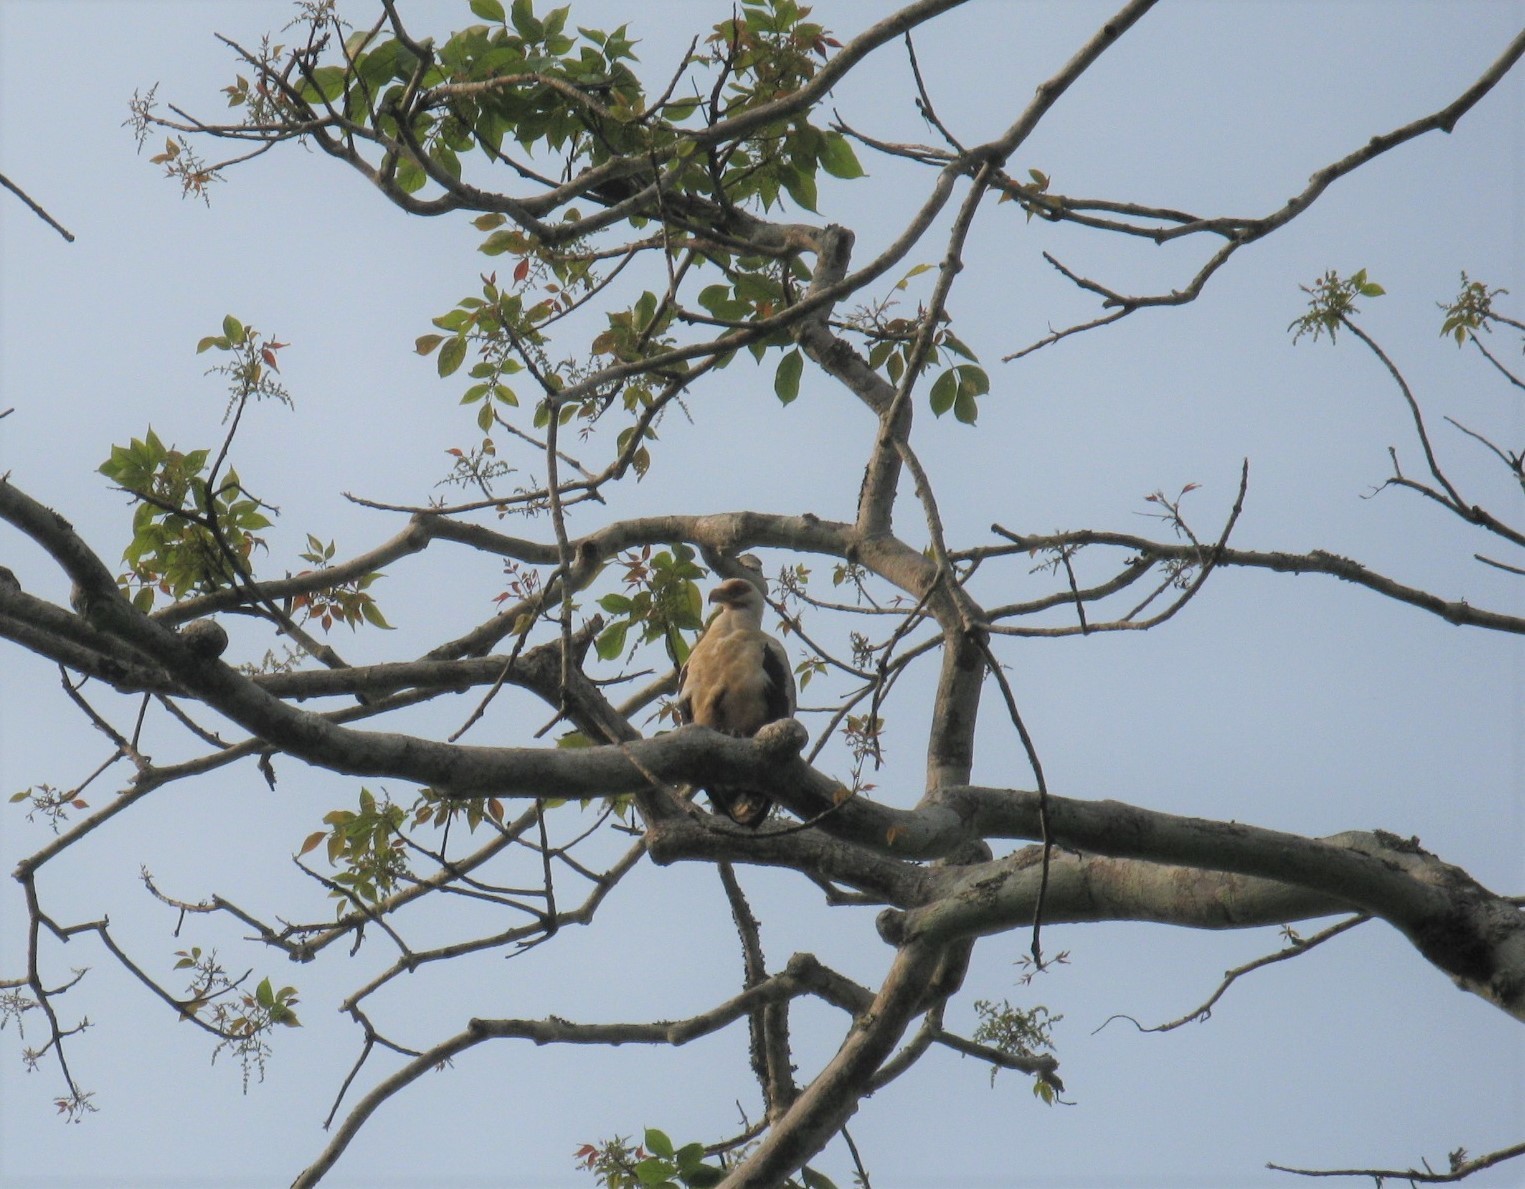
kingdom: Animalia
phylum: Chordata
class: Aves
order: Accipitriformes
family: Accipitridae
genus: Gypohierax
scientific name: Gypohierax angolensis
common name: Palm-nut vulture
